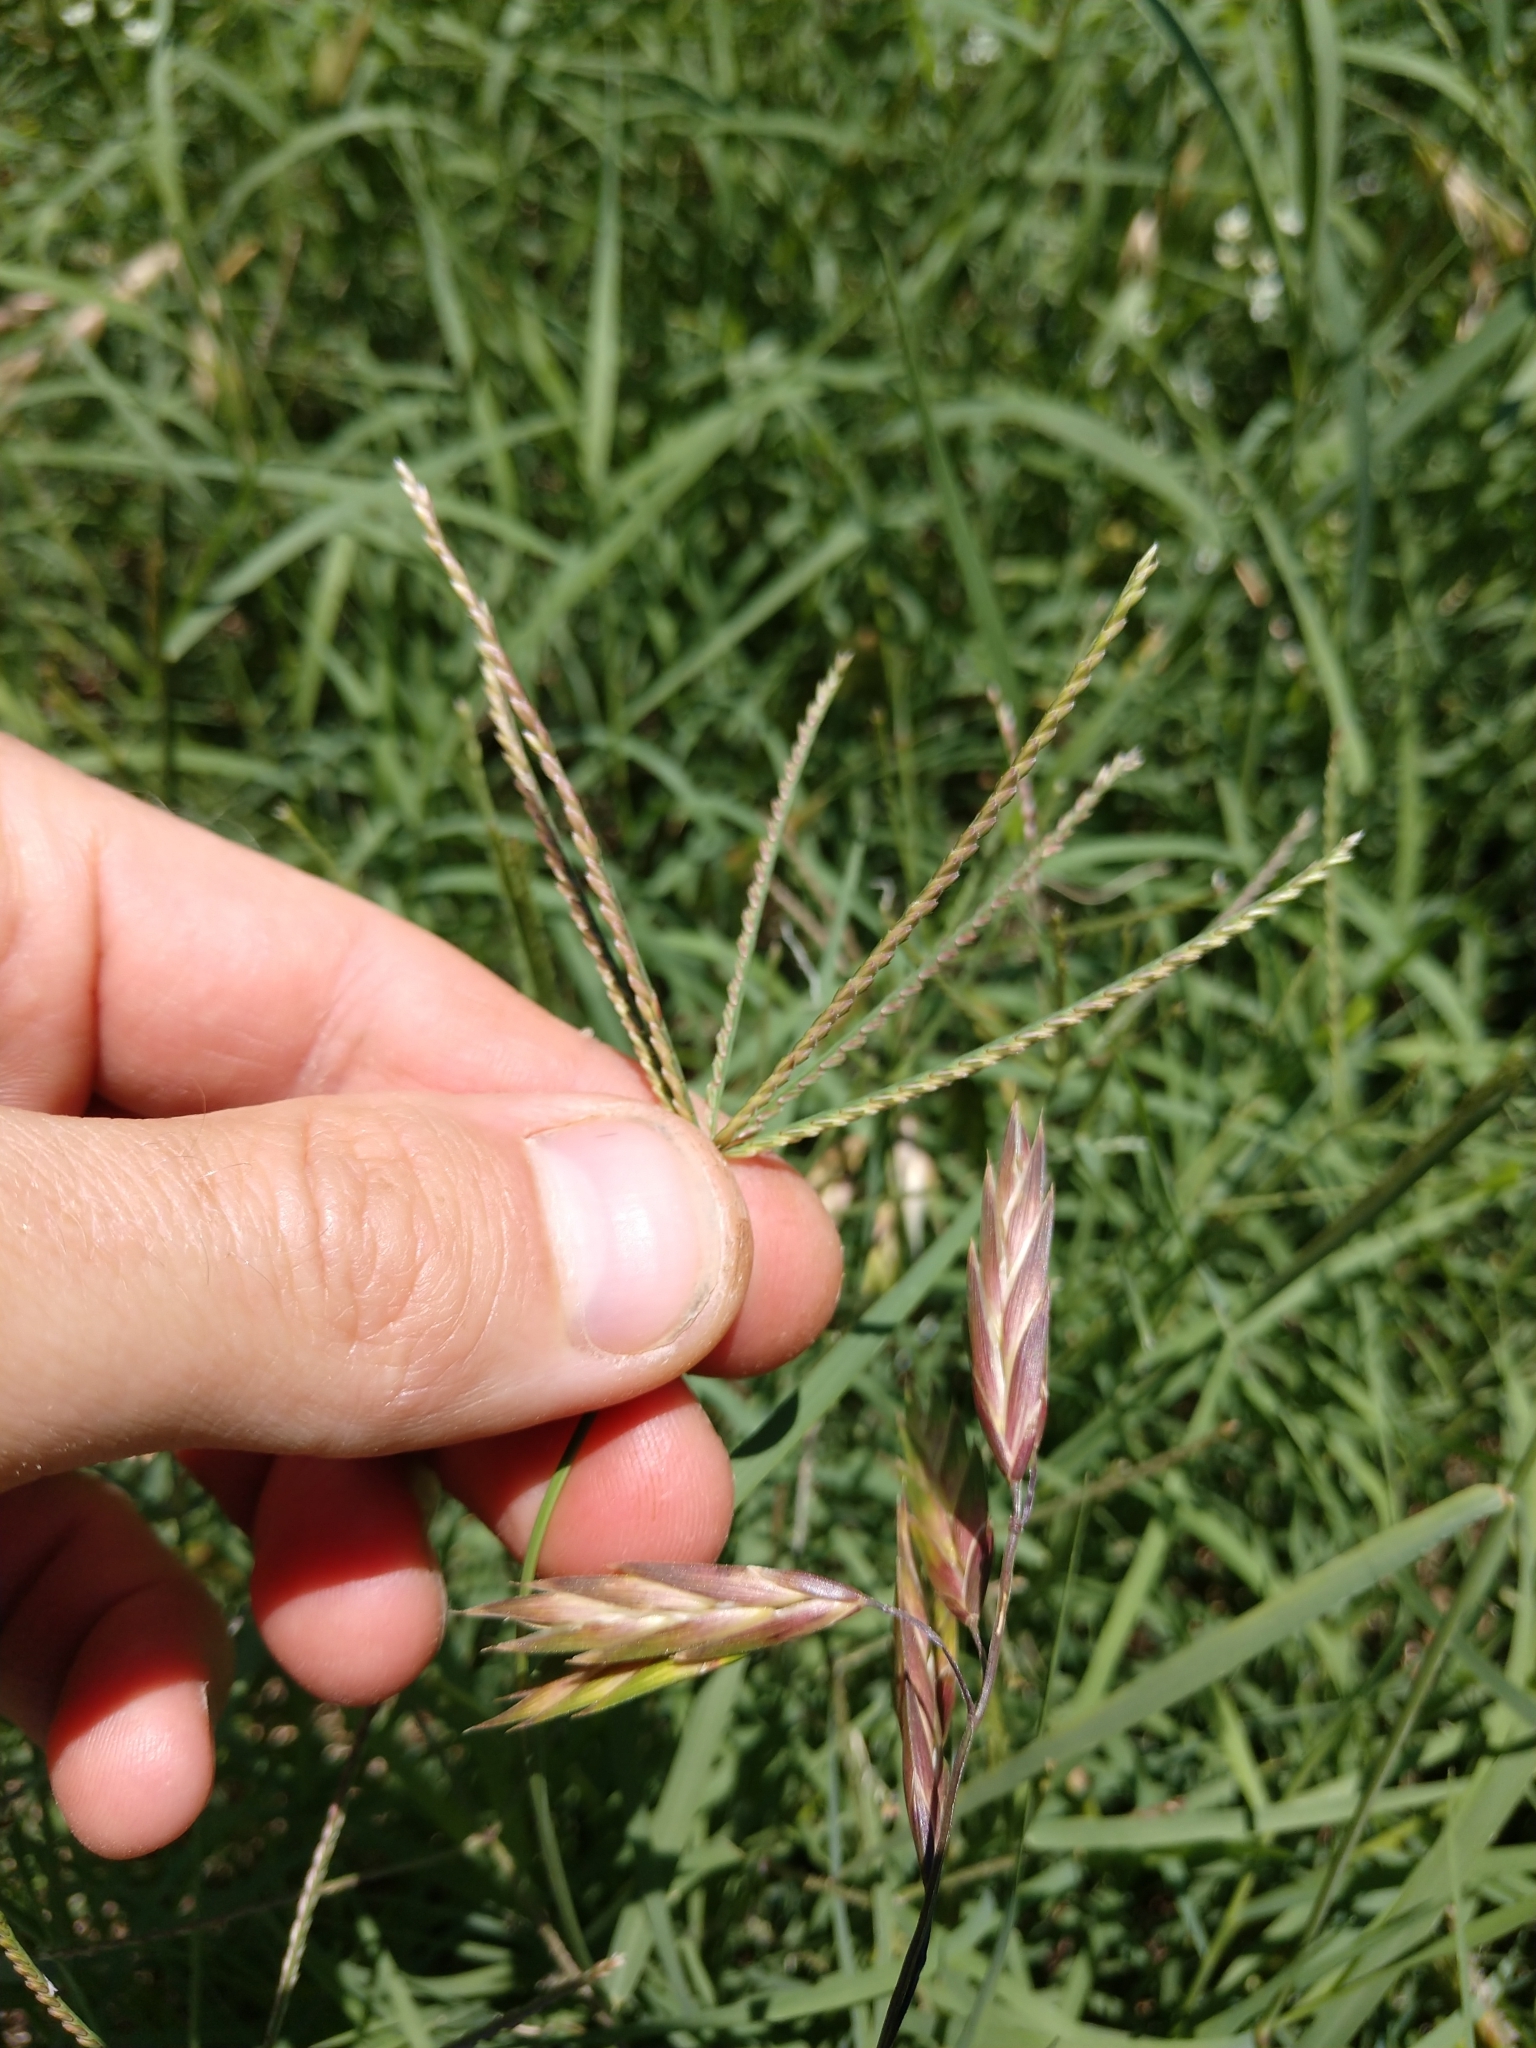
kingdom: Plantae
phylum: Tracheophyta
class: Liliopsida
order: Poales
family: Poaceae
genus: Cynodon
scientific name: Cynodon dactylon
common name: Bermuda grass
